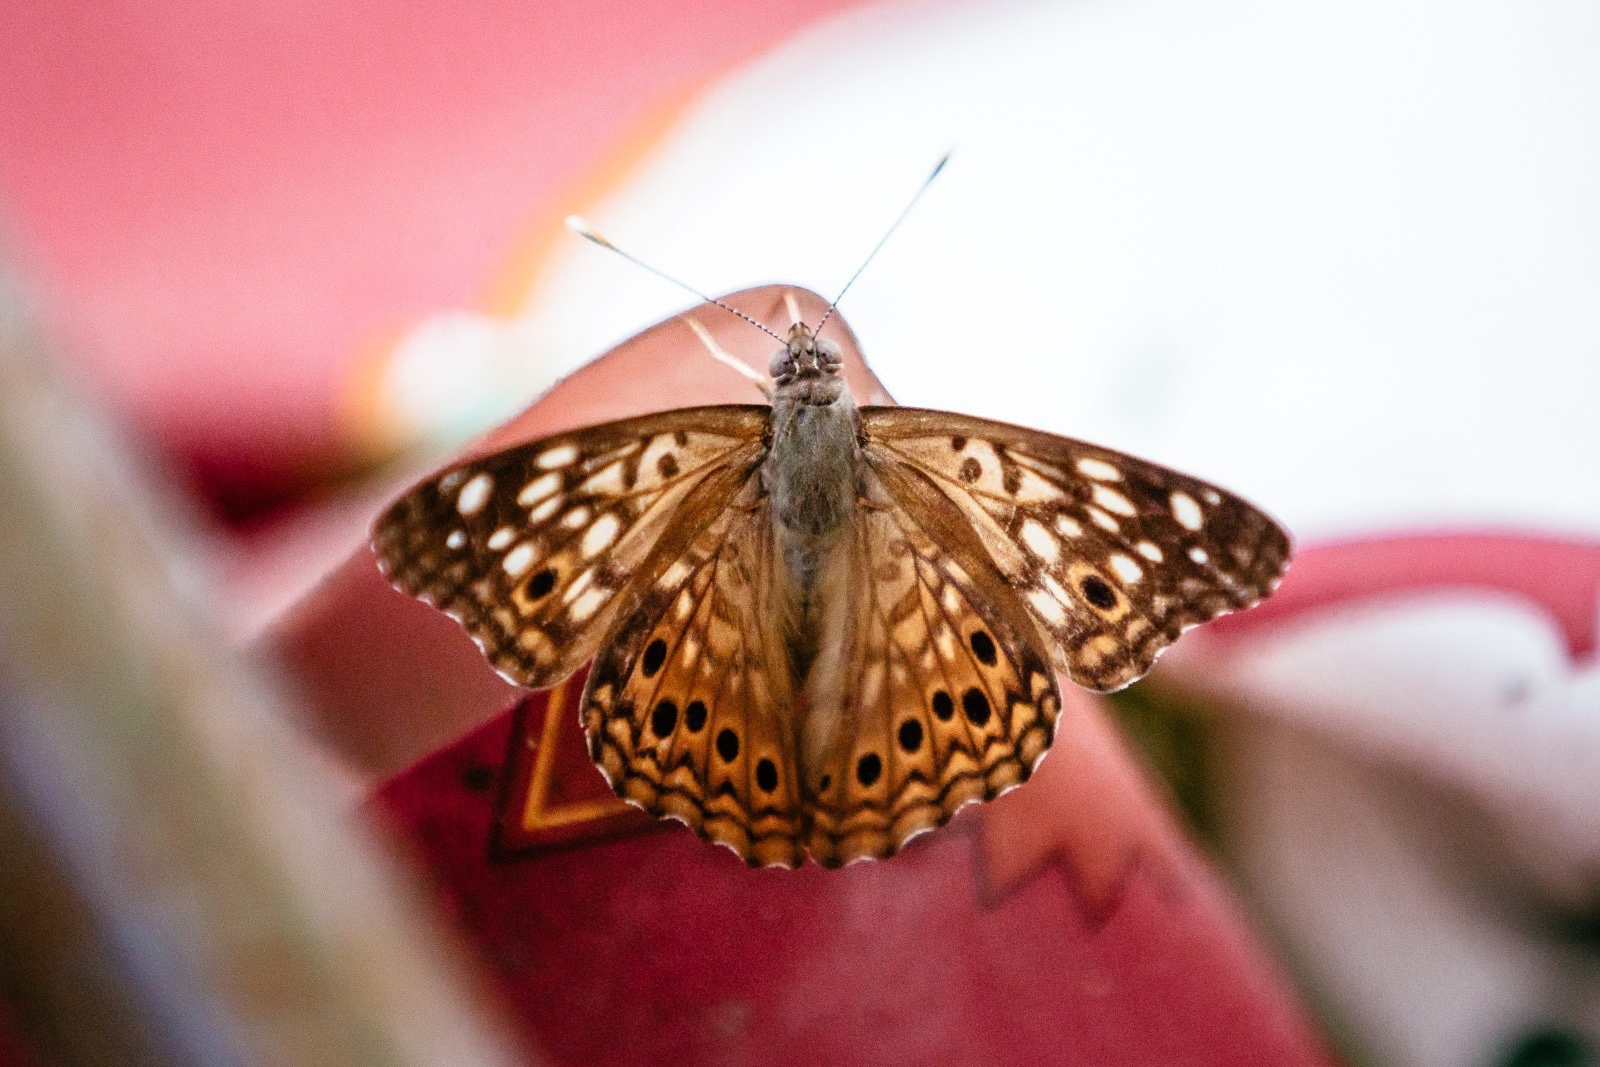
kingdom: Animalia
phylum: Arthropoda
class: Insecta
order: Lepidoptera
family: Nymphalidae
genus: Asterocampa
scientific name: Asterocampa celtis
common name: Hackberry emperor
